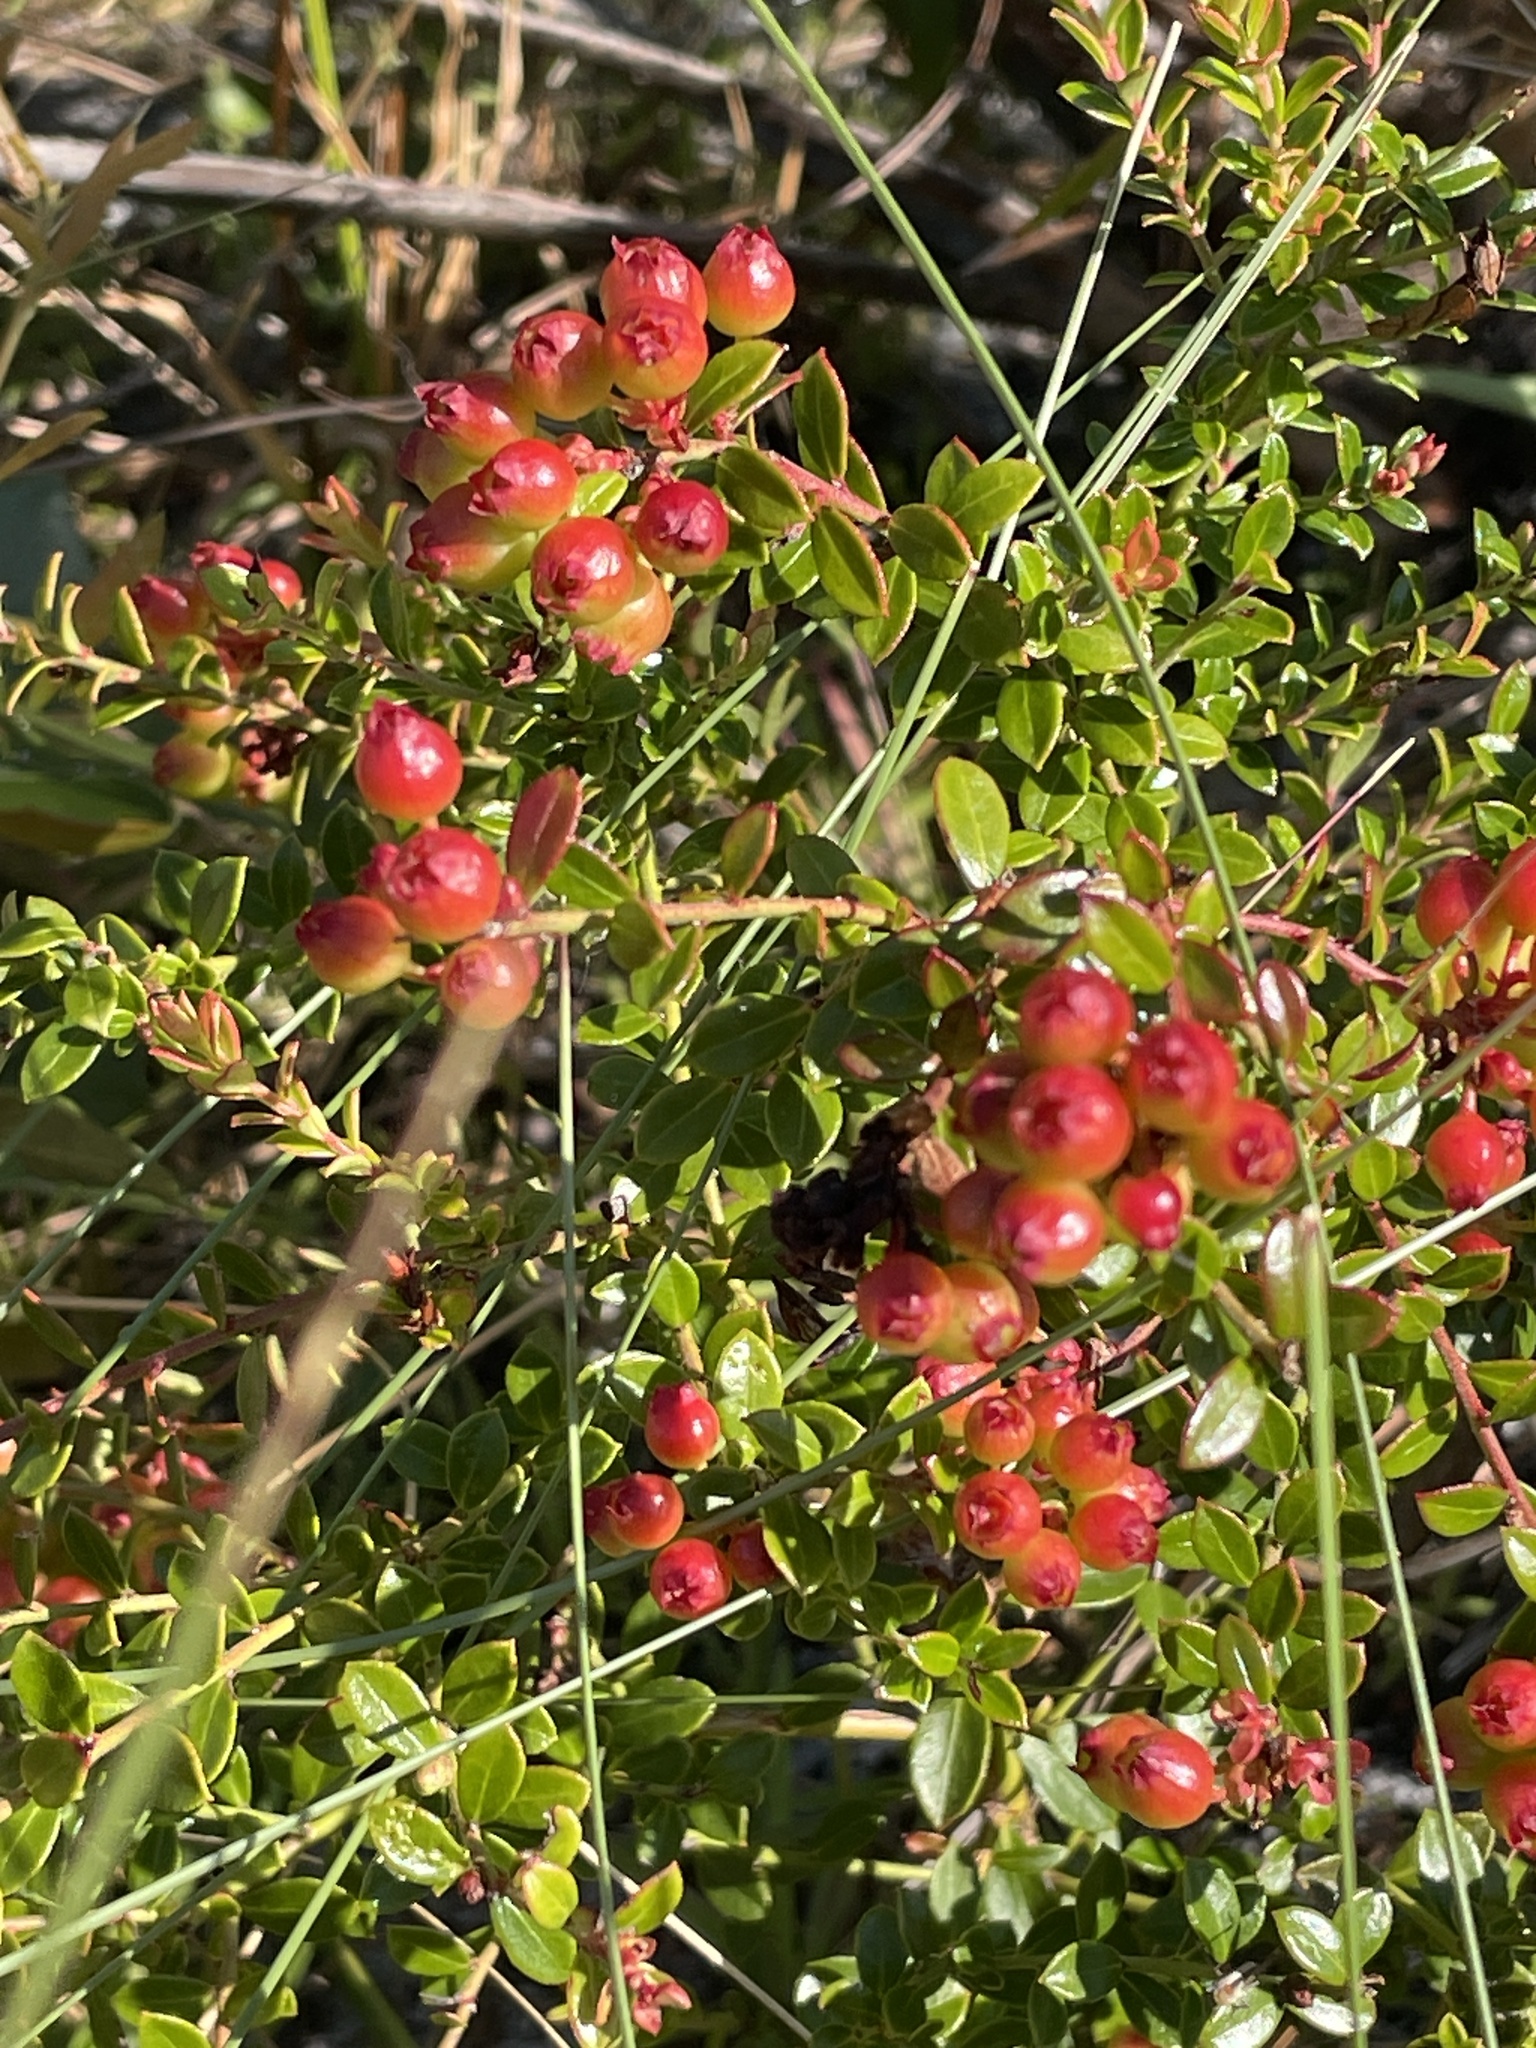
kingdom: Plantae
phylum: Tracheophyta
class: Magnoliopsida
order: Ericales
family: Ericaceae
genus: Vaccinium
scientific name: Vaccinium myrsinites
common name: Evergreen blueberry
